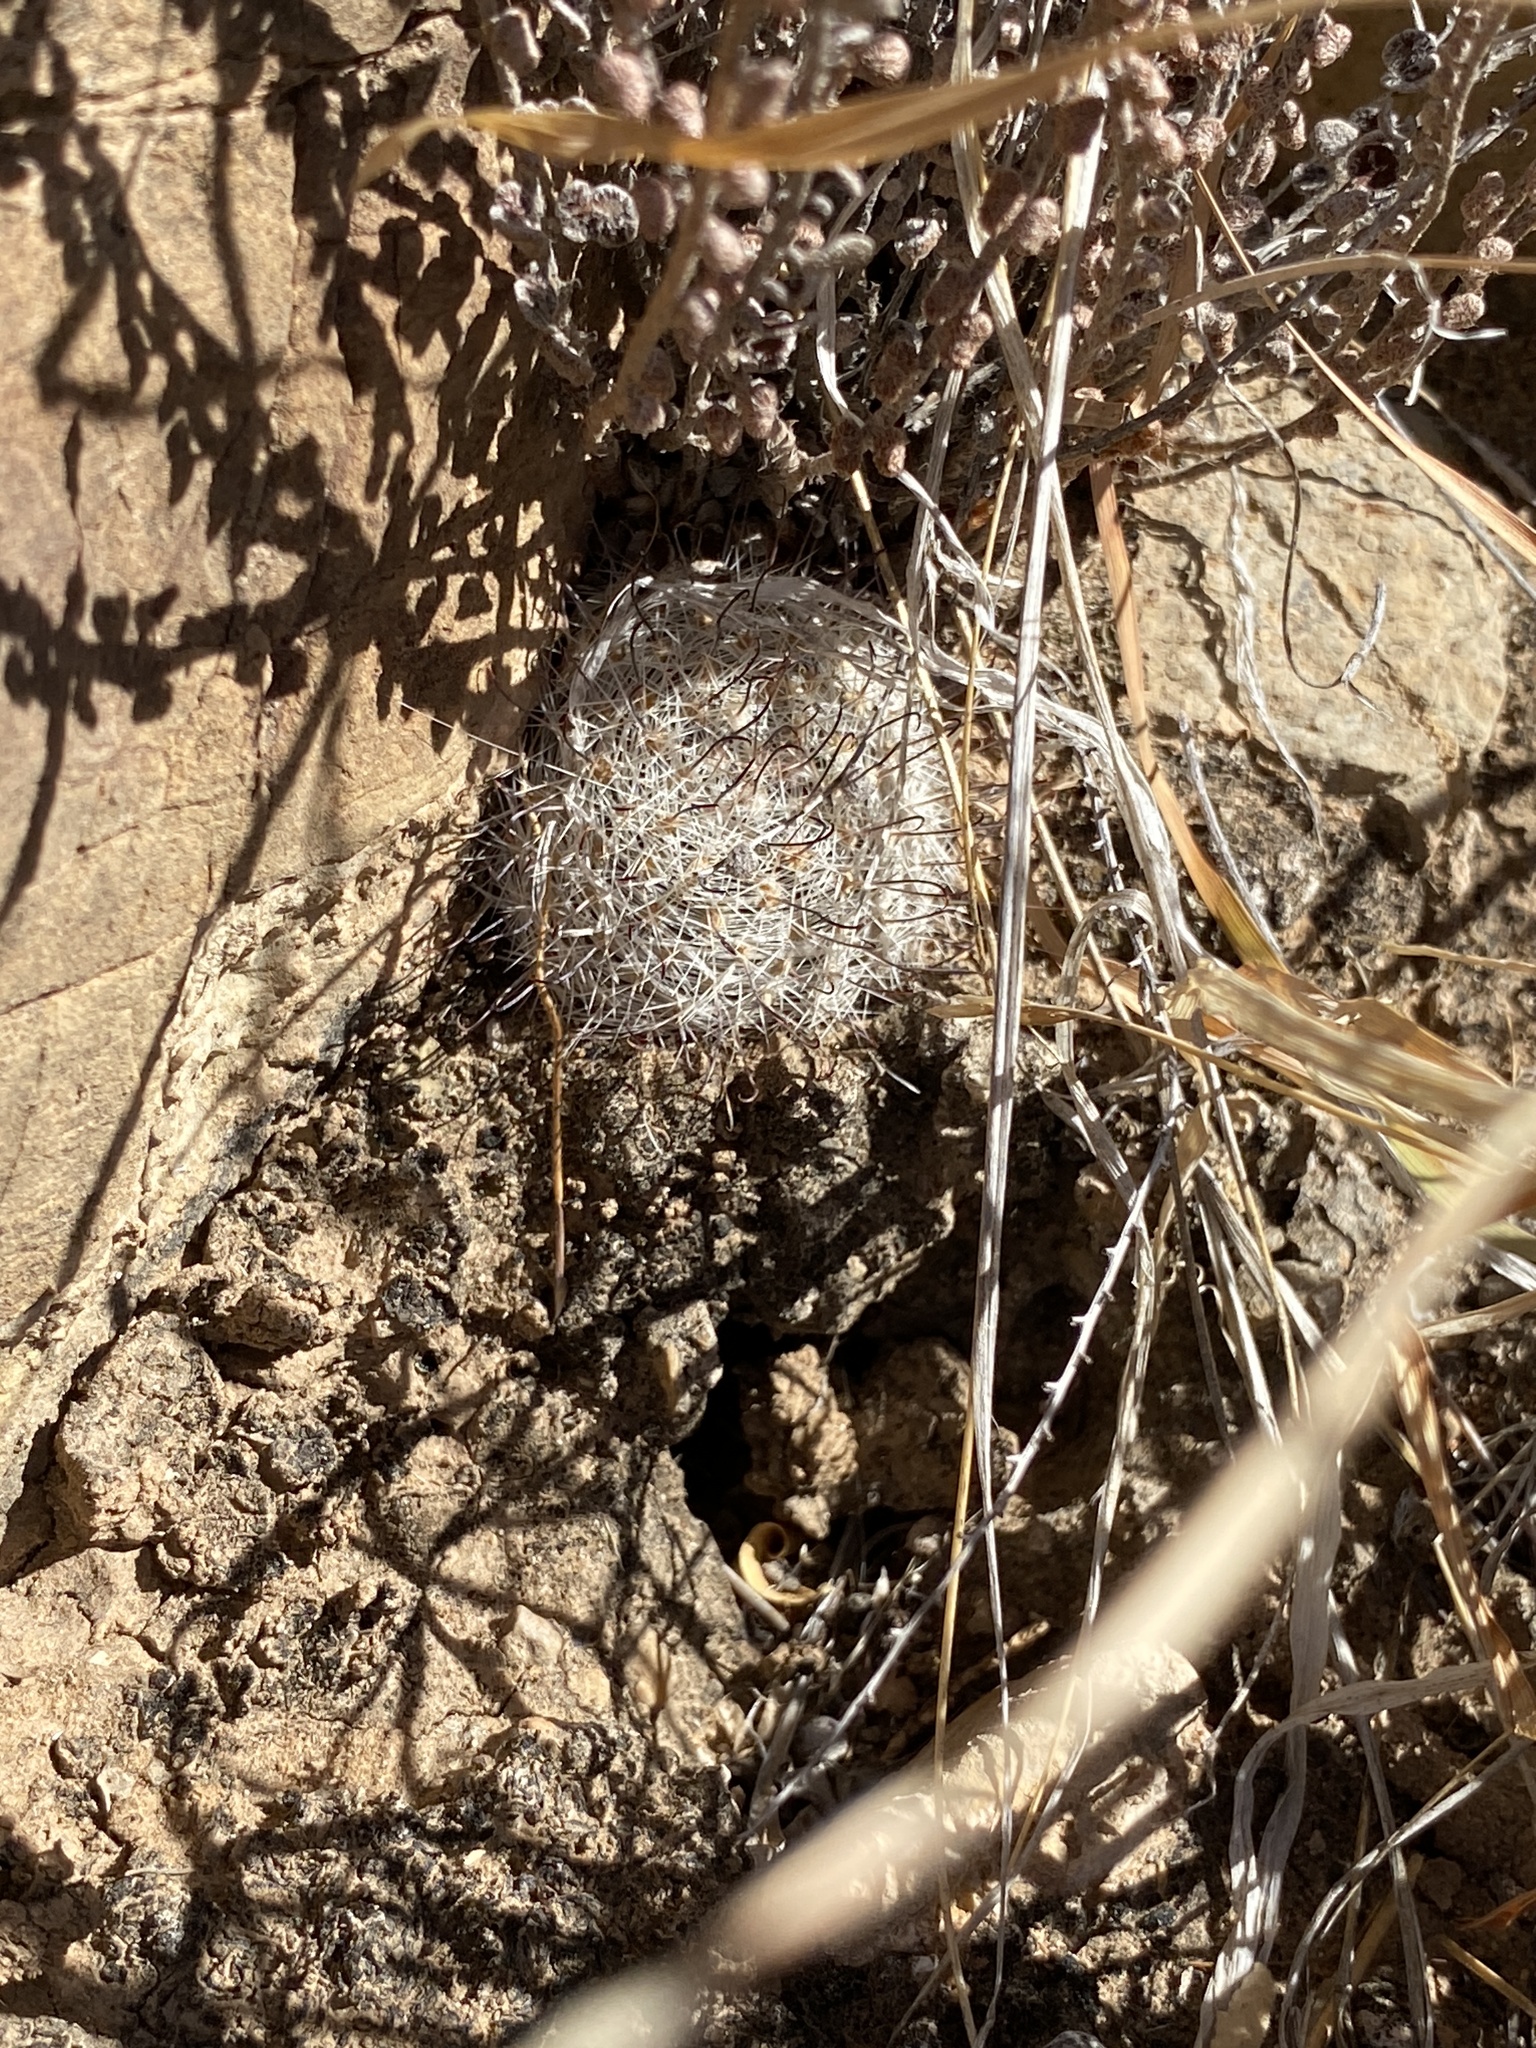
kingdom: Plantae
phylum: Tracheophyta
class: Magnoliopsida
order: Caryophyllales
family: Cactaceae
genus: Cochemiea
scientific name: Cochemiea grahamii
